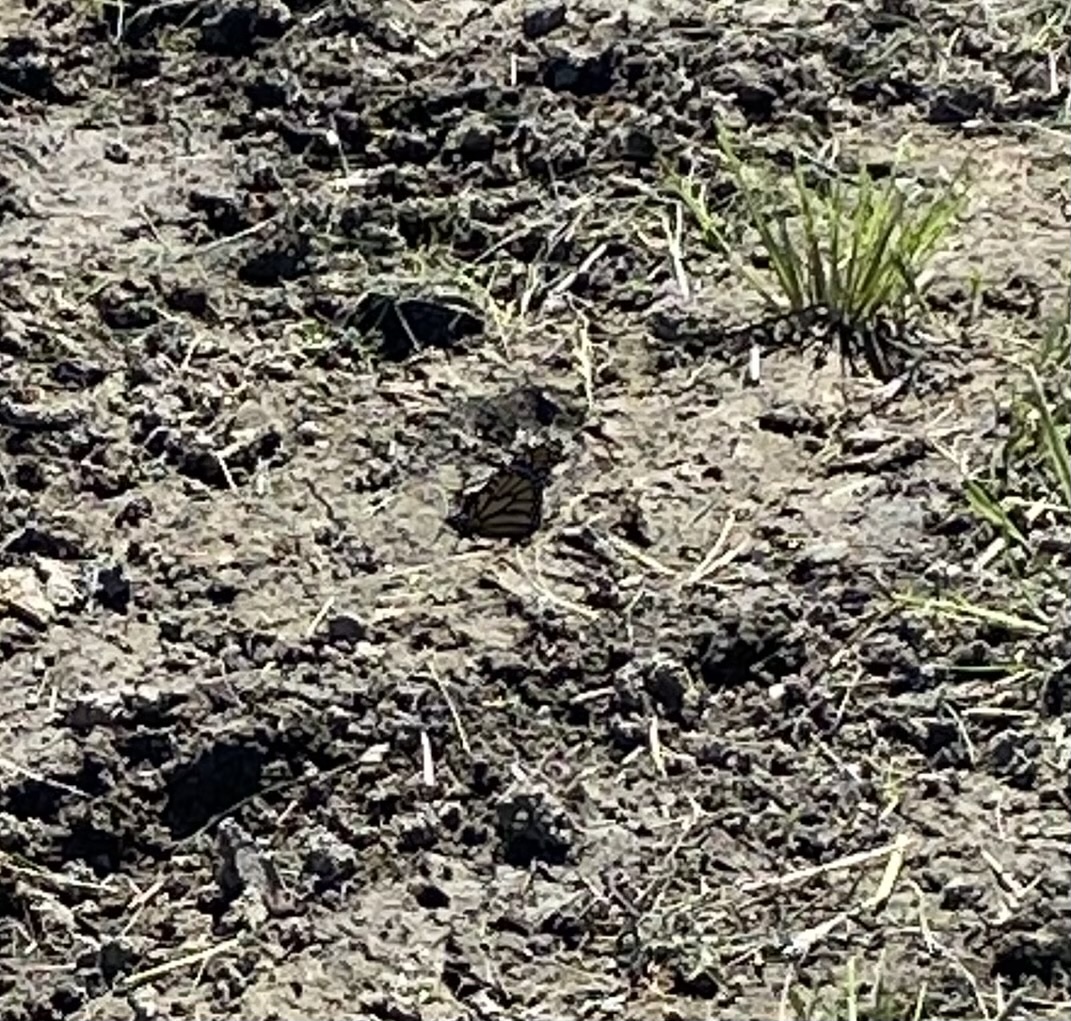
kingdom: Animalia
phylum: Arthropoda
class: Insecta
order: Lepidoptera
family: Nymphalidae
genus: Danaus
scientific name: Danaus plexippus
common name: Monarch
